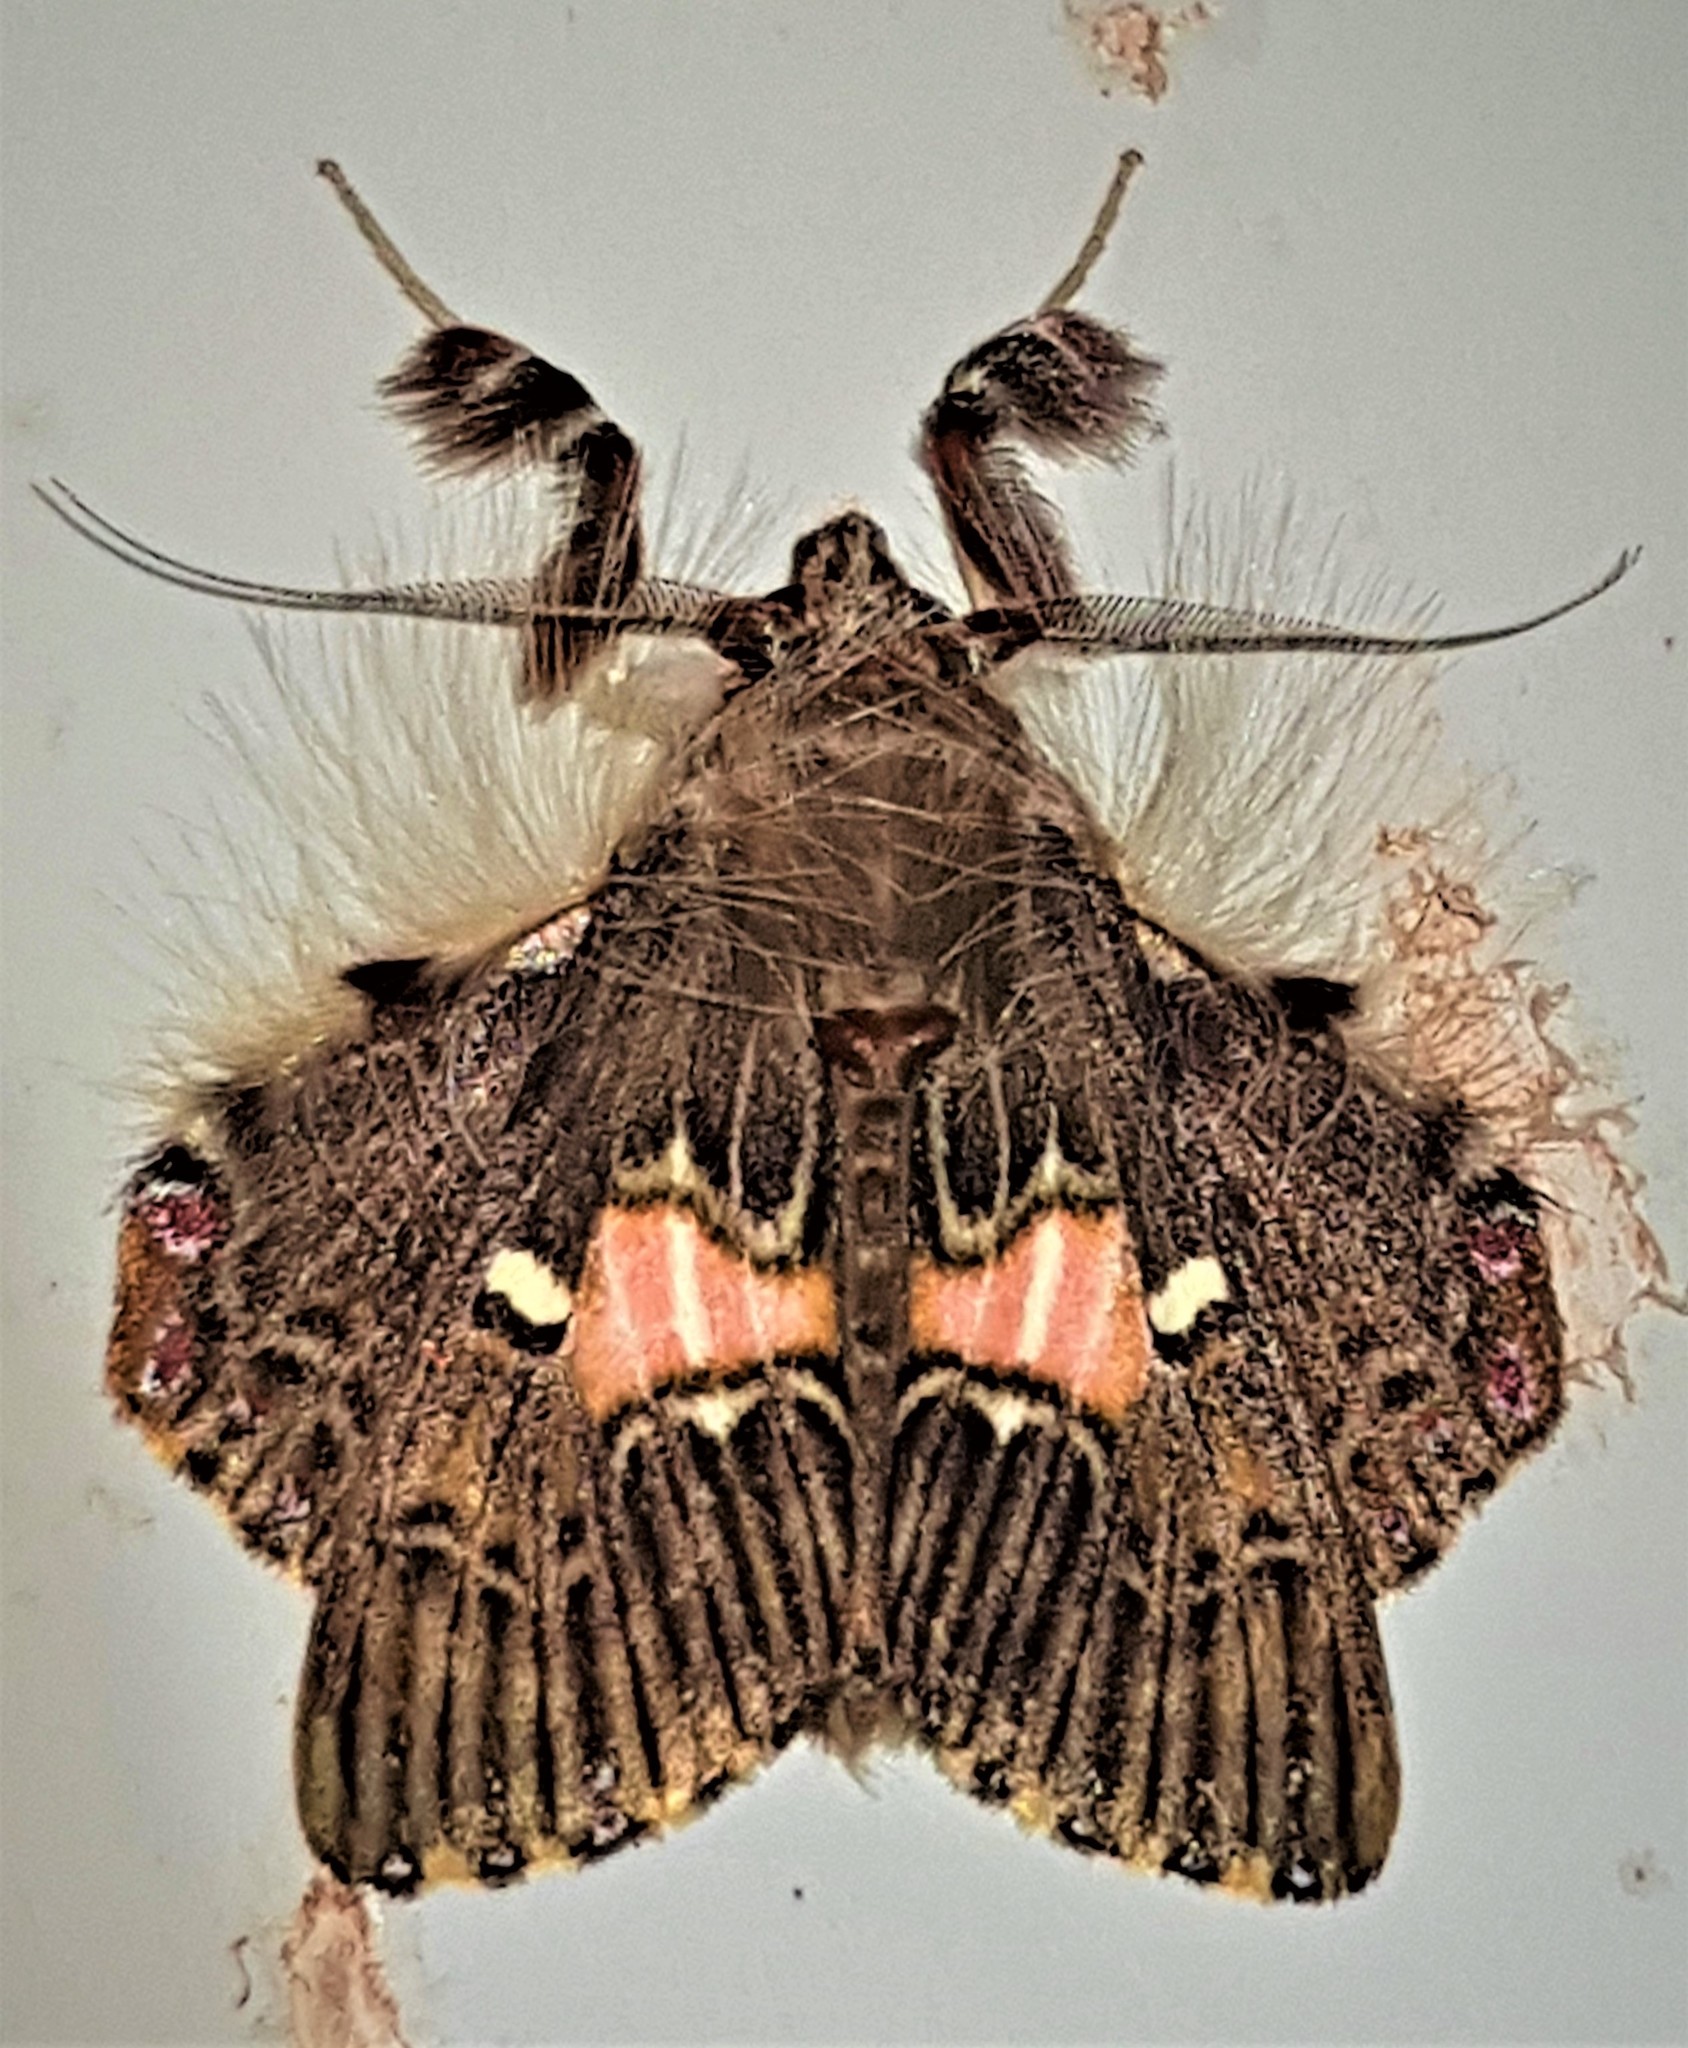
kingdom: Animalia
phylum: Arthropoda
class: Insecta
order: Lepidoptera
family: Erebidae
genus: Sosxetra
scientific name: Sosxetra grata
